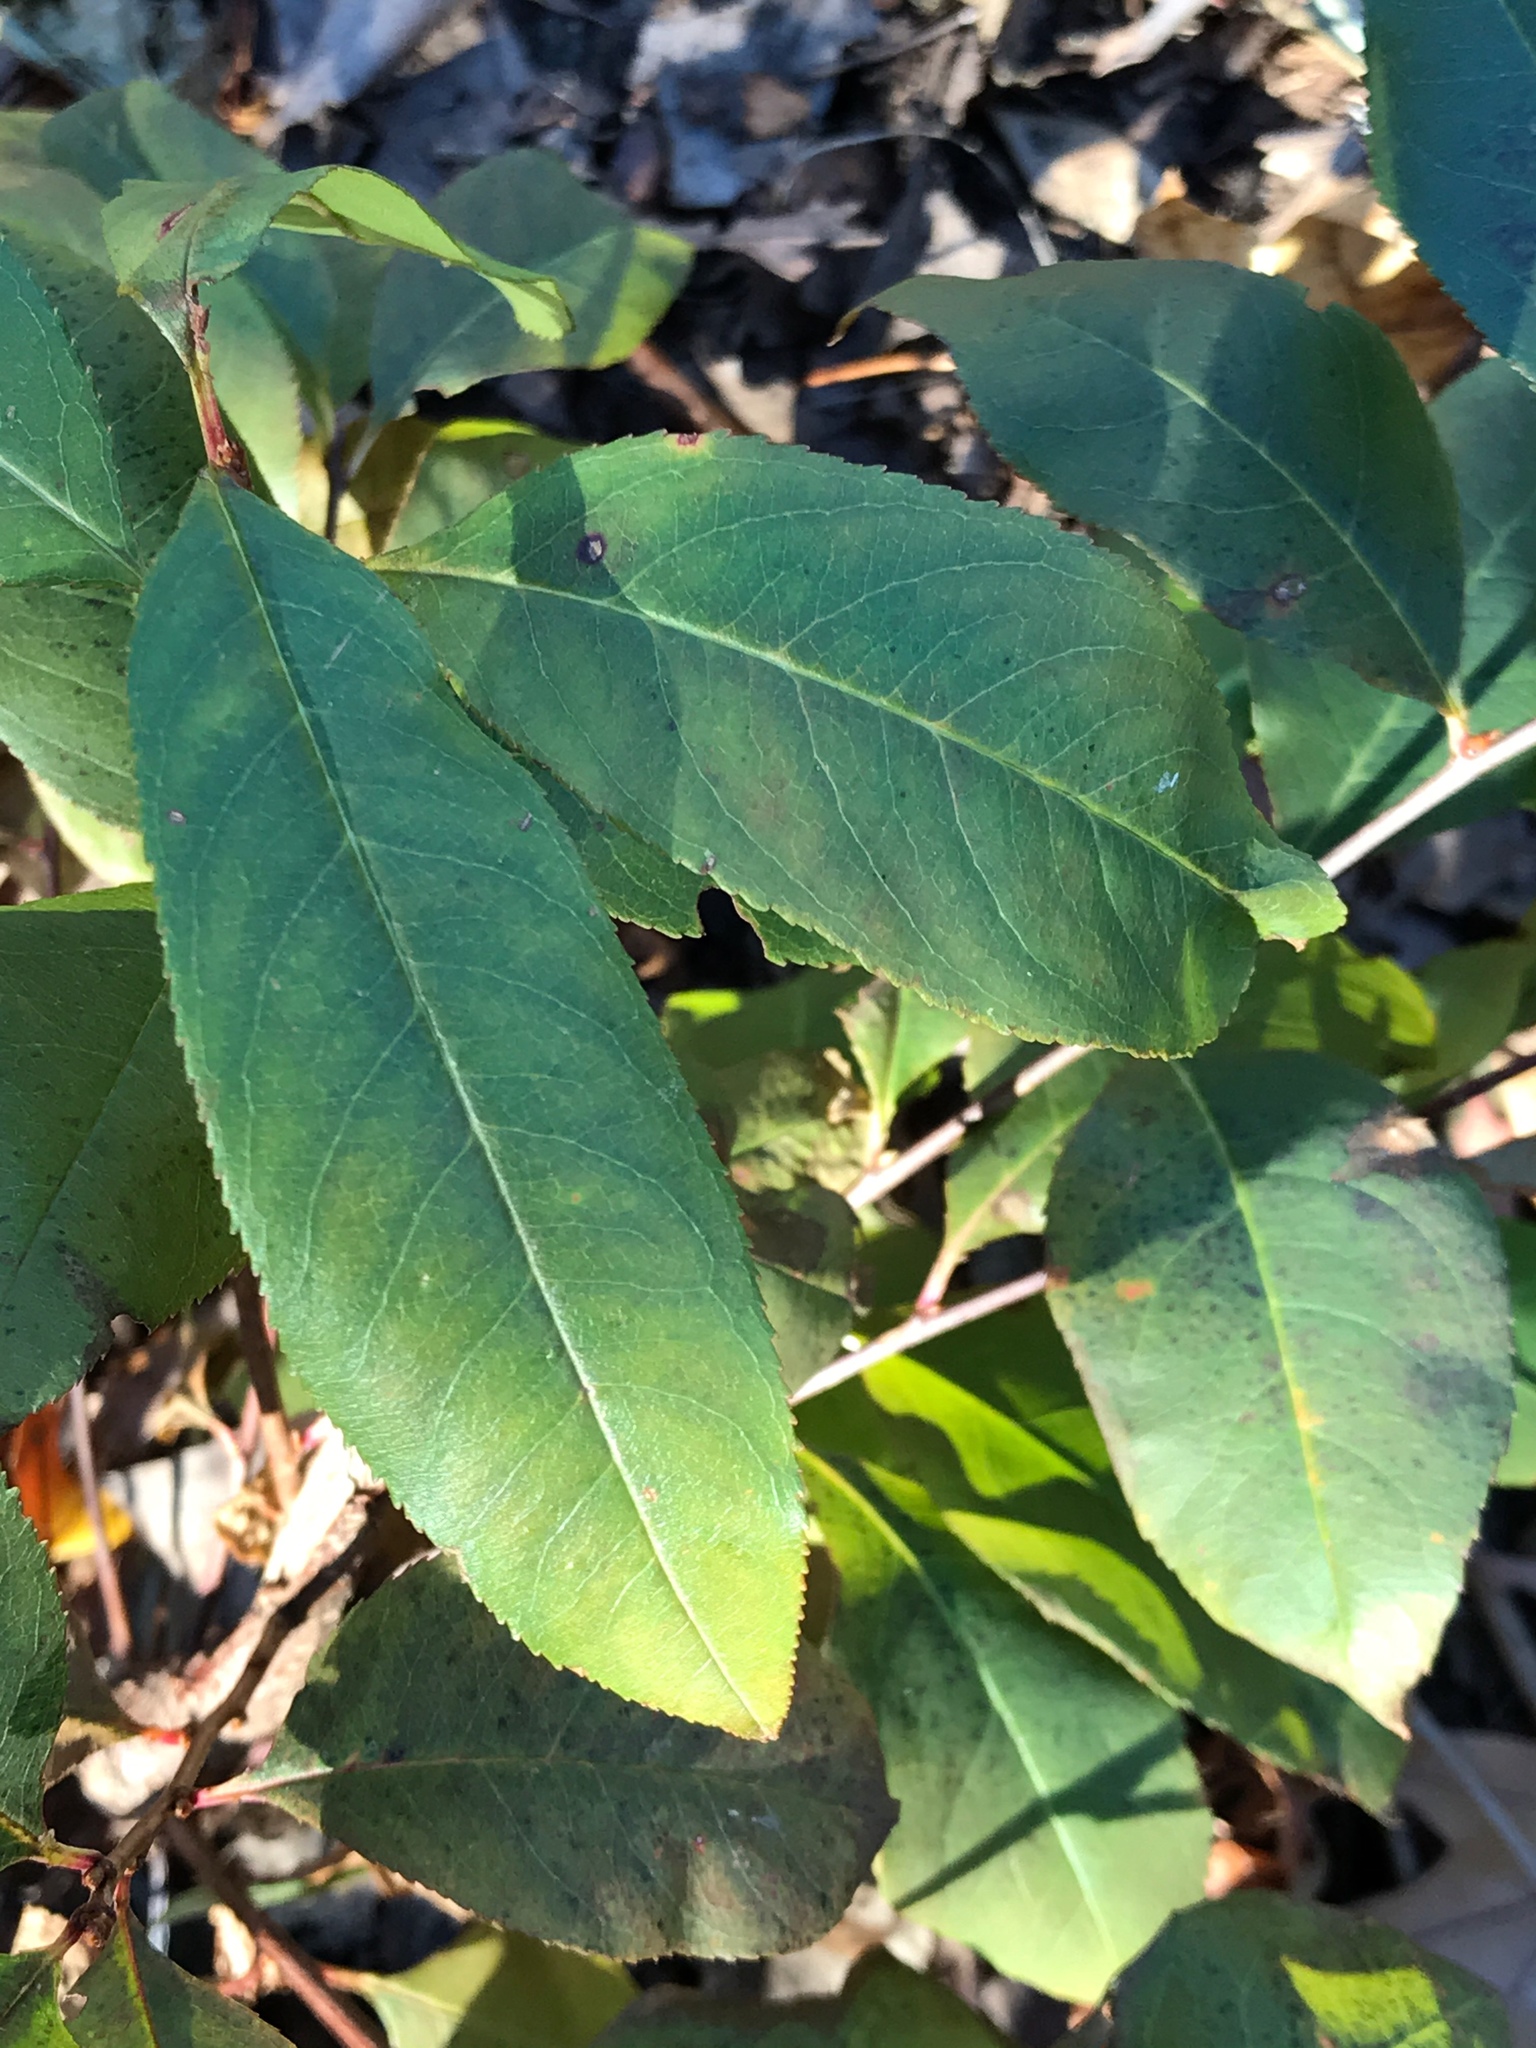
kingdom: Plantae
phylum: Tracheophyta
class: Magnoliopsida
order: Rosales
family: Rosaceae
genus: Prunus
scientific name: Prunus serotina
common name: Black cherry
